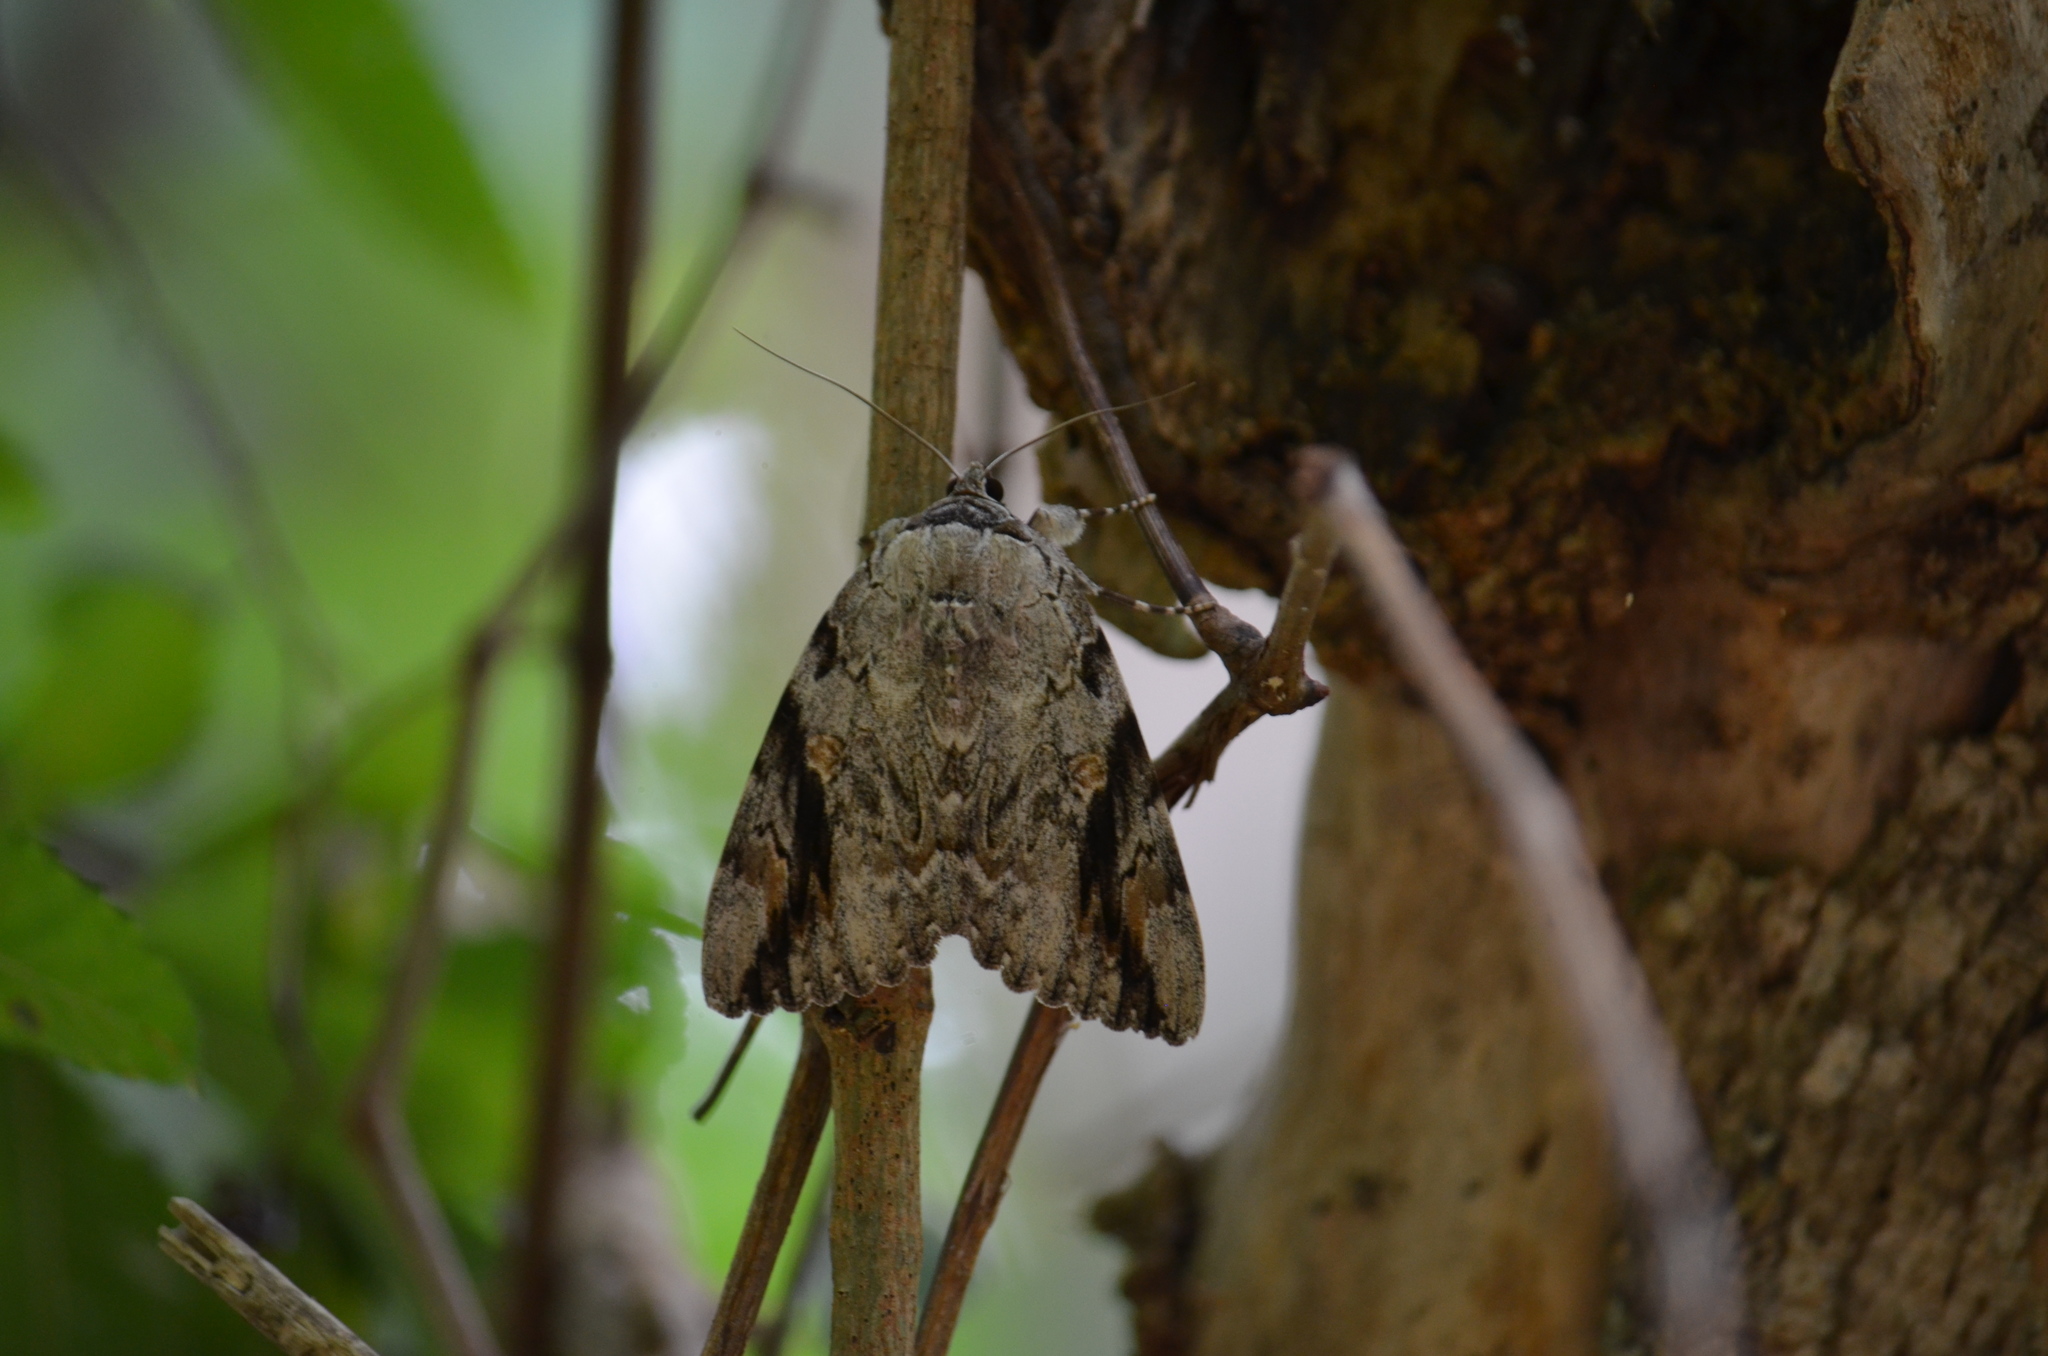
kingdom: Animalia
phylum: Arthropoda
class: Insecta
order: Lepidoptera
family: Erebidae
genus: Catocala
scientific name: Catocala maestosa
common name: Sad underwing
